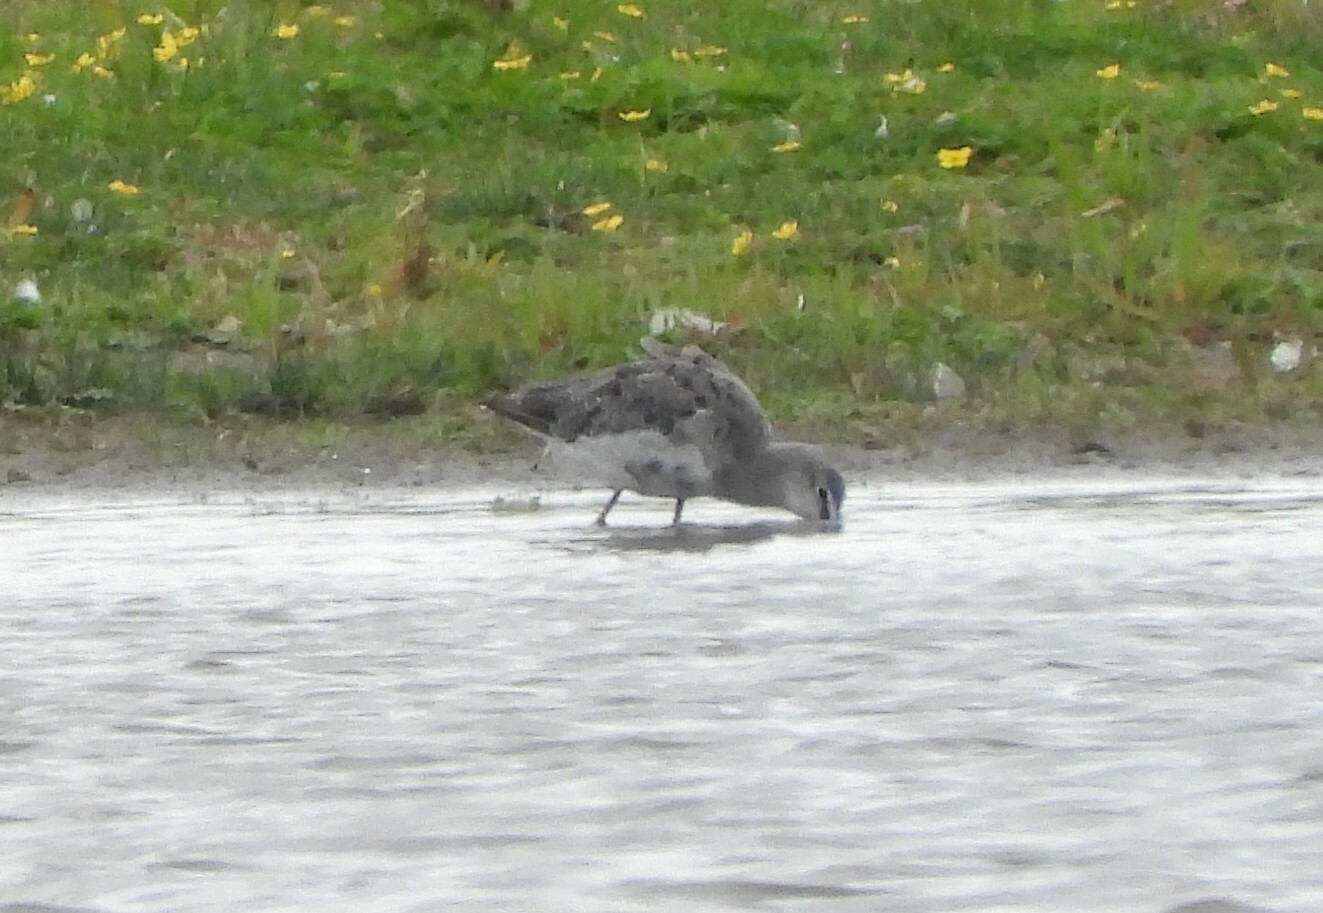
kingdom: Animalia
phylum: Chordata
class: Aves
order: Charadriiformes
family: Scolopacidae
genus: Tringa
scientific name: Tringa erythropus
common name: Spotted redshank
